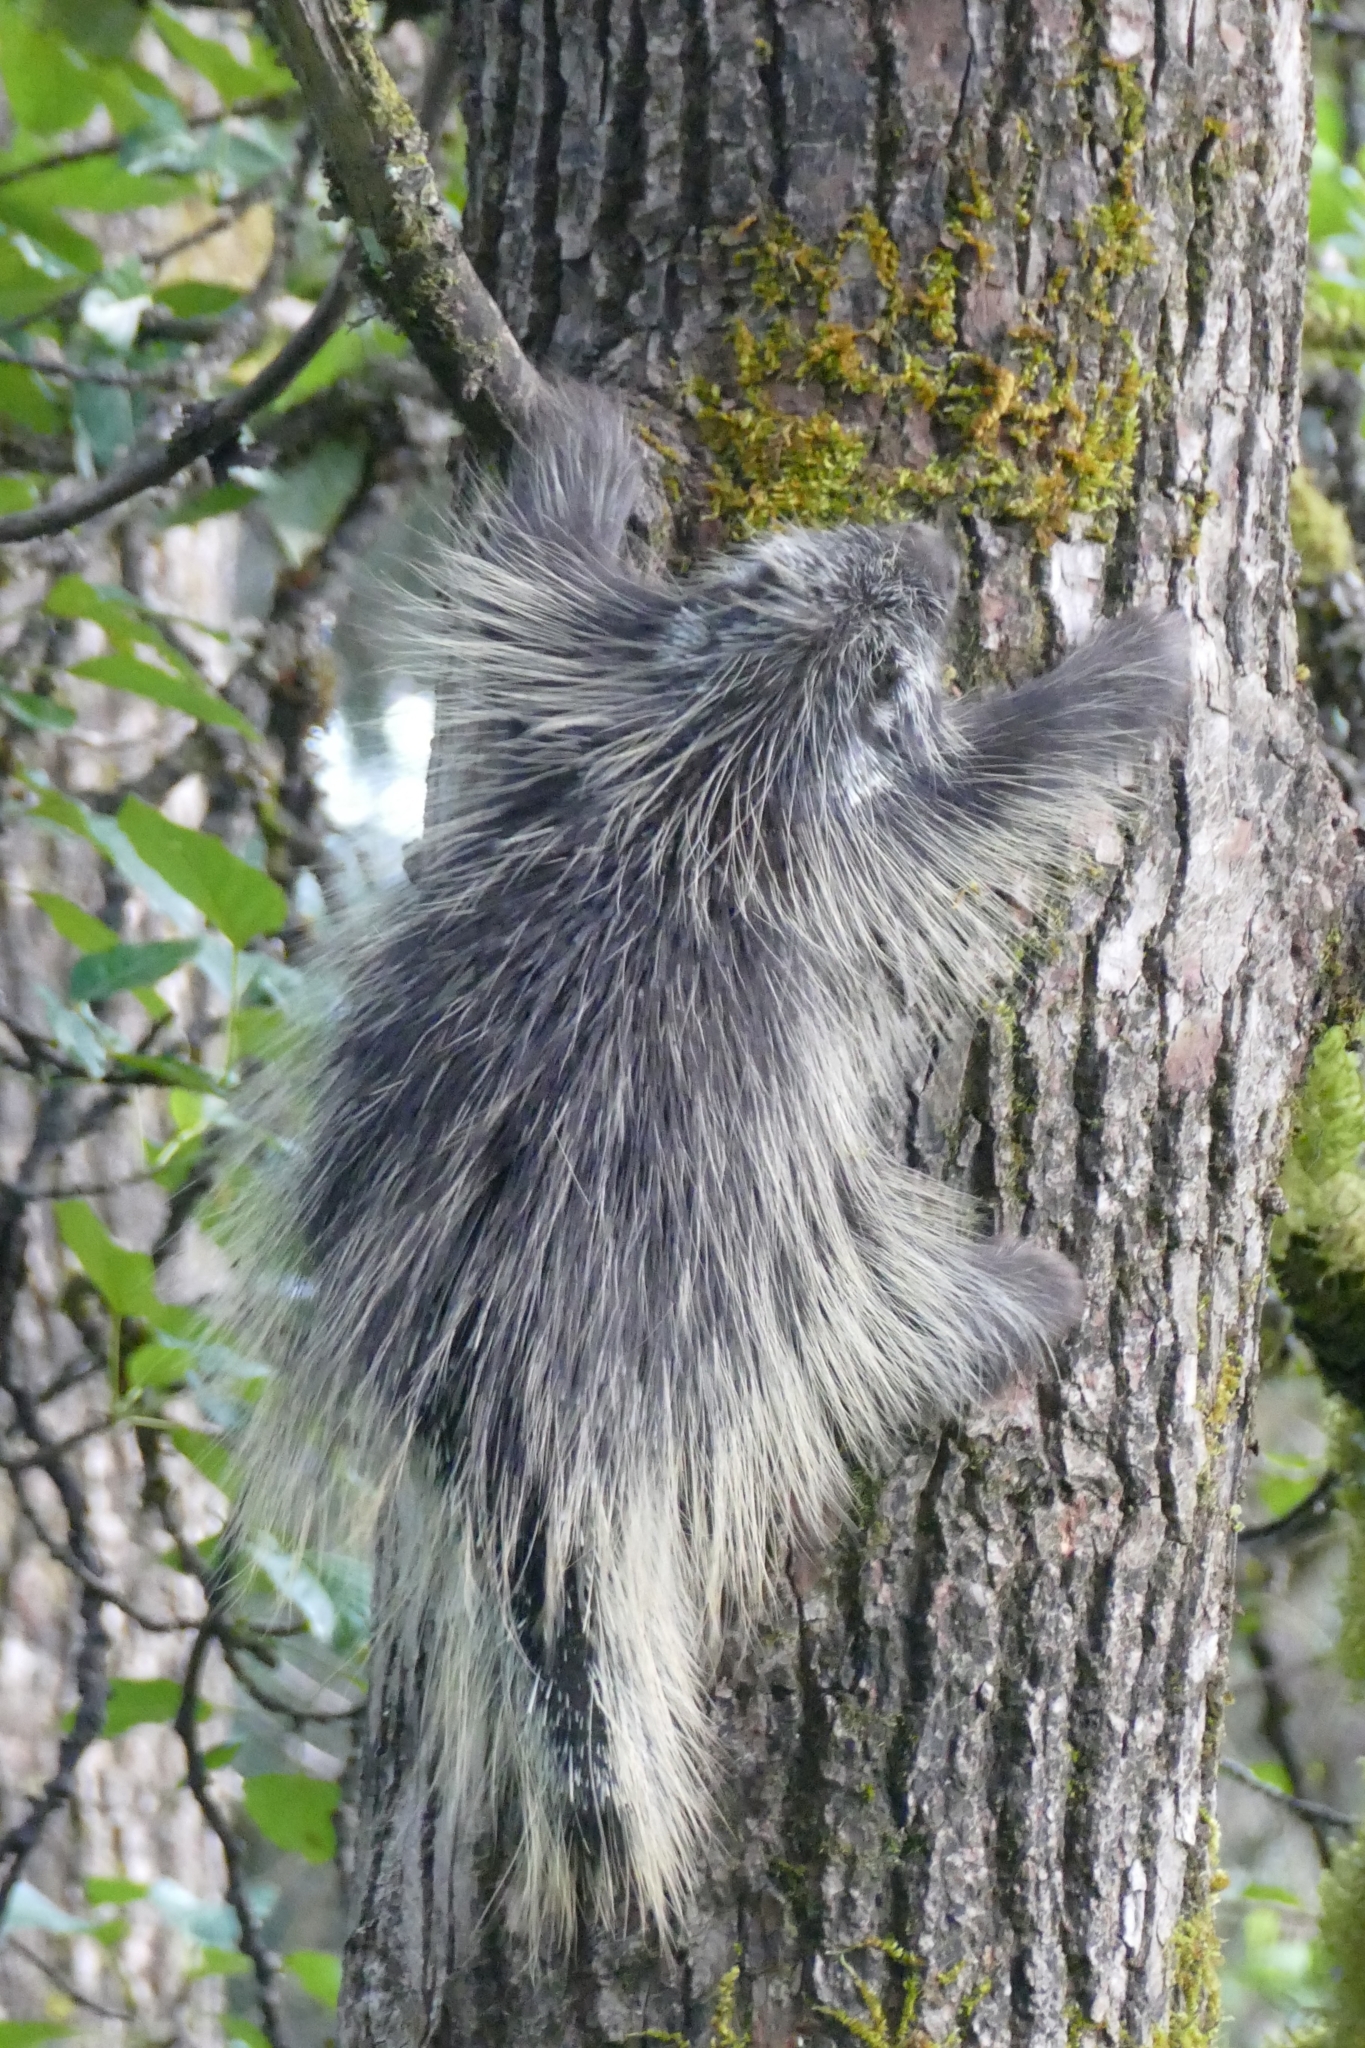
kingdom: Animalia
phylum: Chordata
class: Mammalia
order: Rodentia
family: Erethizontidae
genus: Erethizon
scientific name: Erethizon dorsatus
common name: North american porcupine
